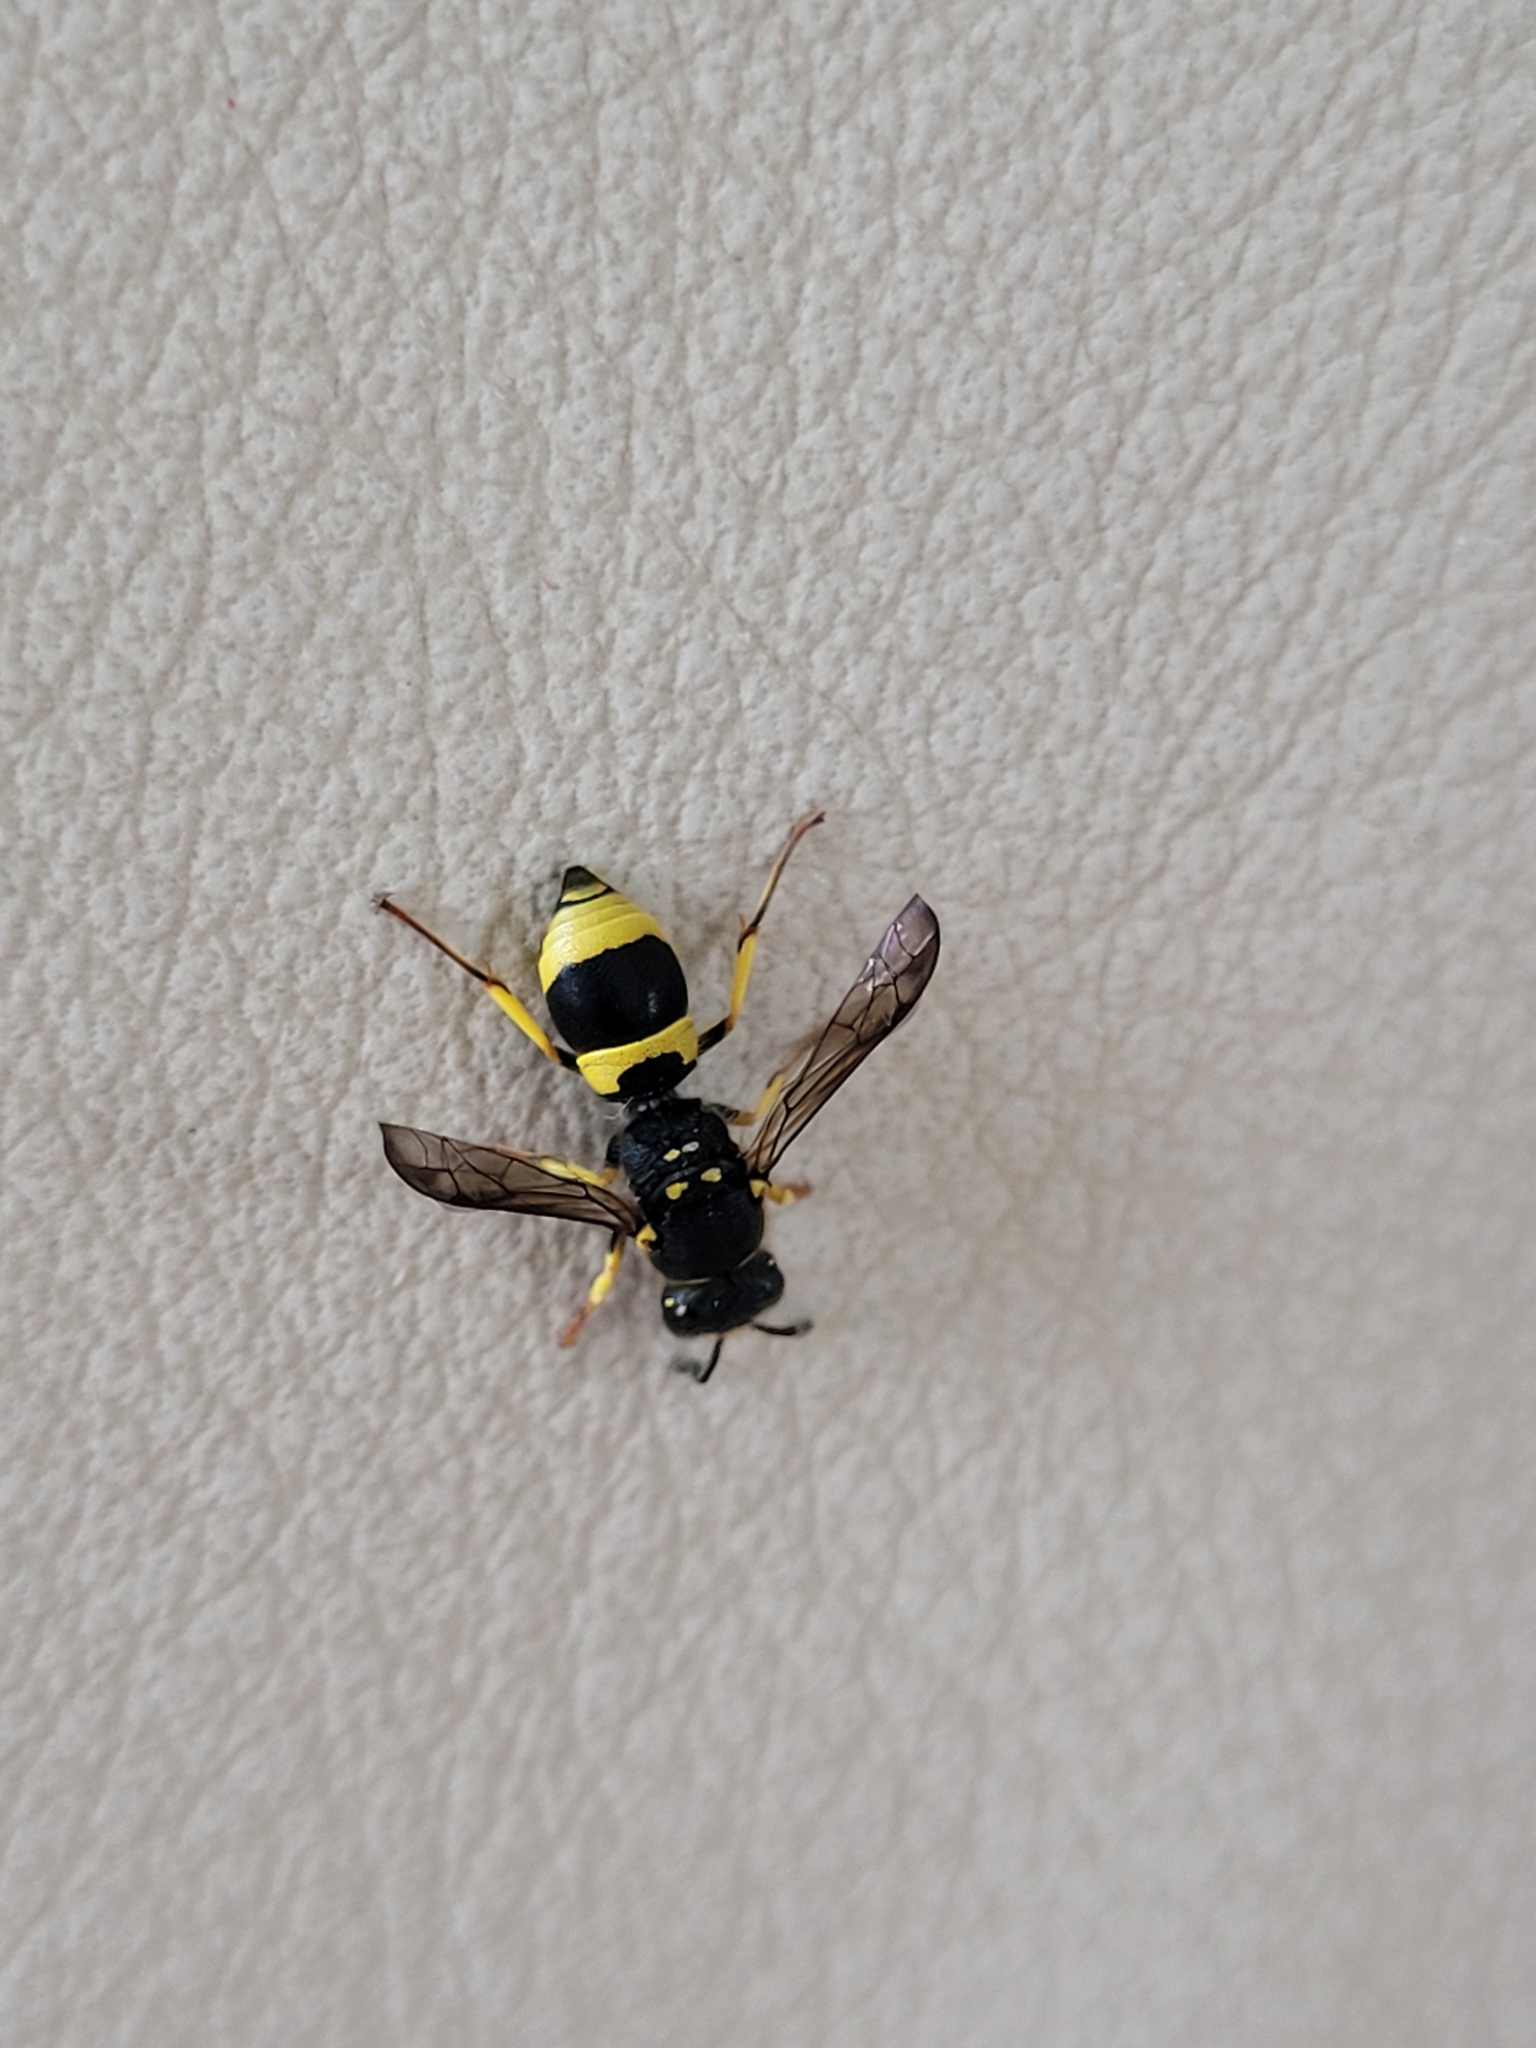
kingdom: Animalia
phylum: Arthropoda
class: Insecta
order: Hymenoptera
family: Vespidae
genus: Ancistrocerus
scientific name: Ancistrocerus gazella
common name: European tube wasp
